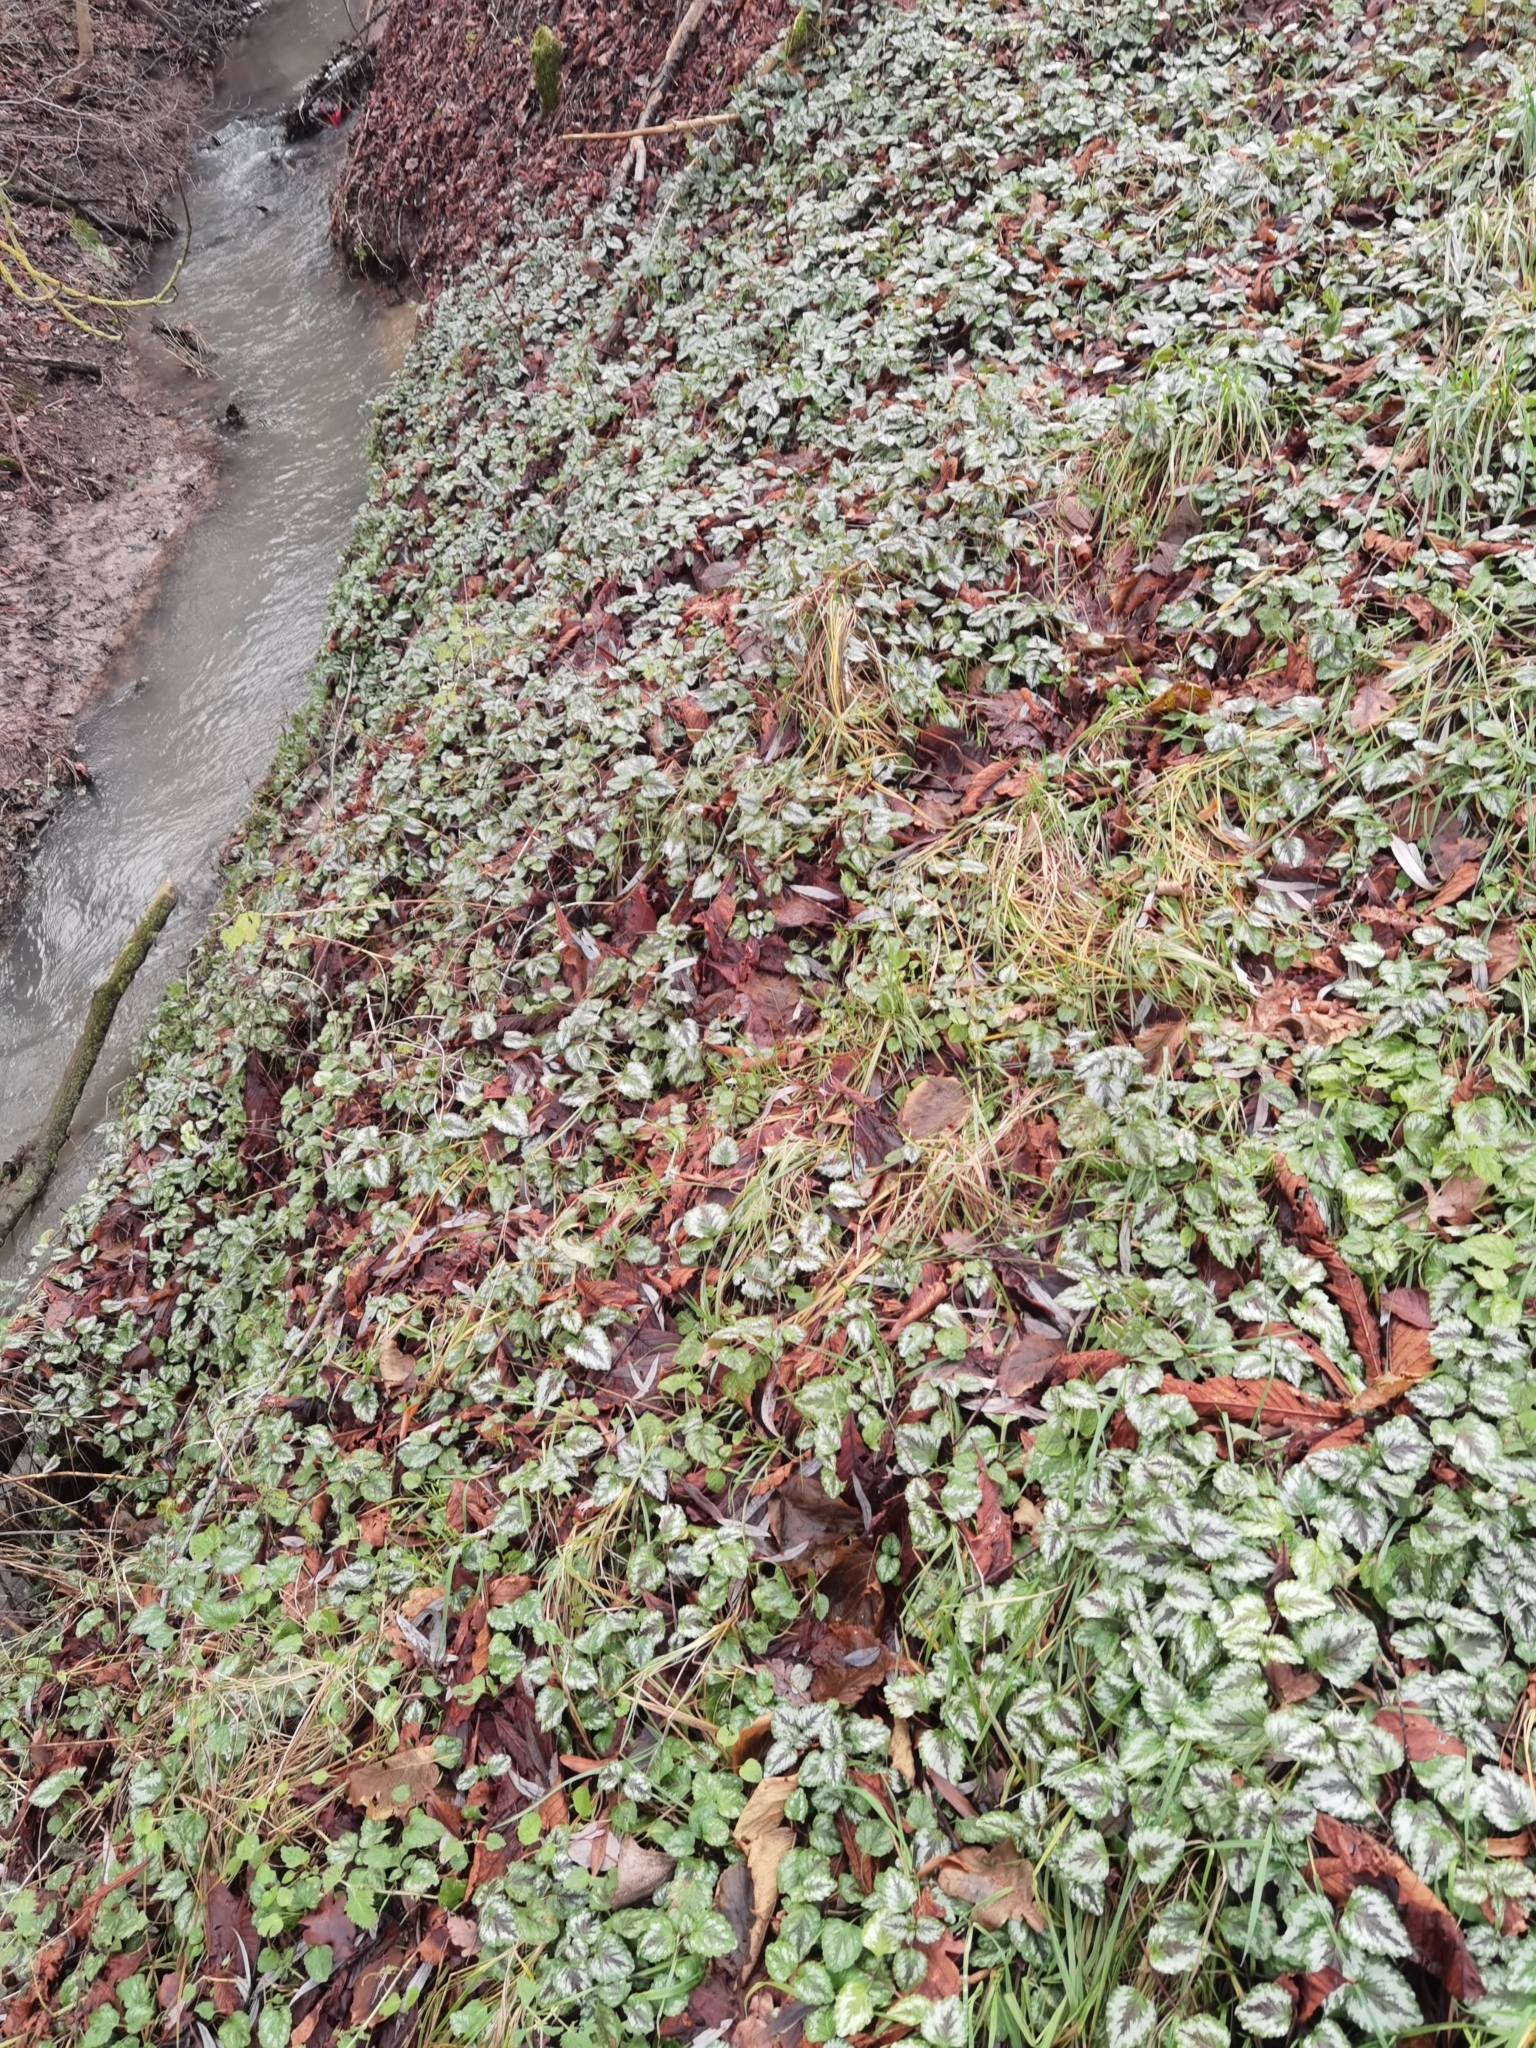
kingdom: Plantae
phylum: Tracheophyta
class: Magnoliopsida
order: Lamiales
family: Lamiaceae
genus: Lamium
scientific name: Lamium galeobdolon
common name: Yellow archangel
